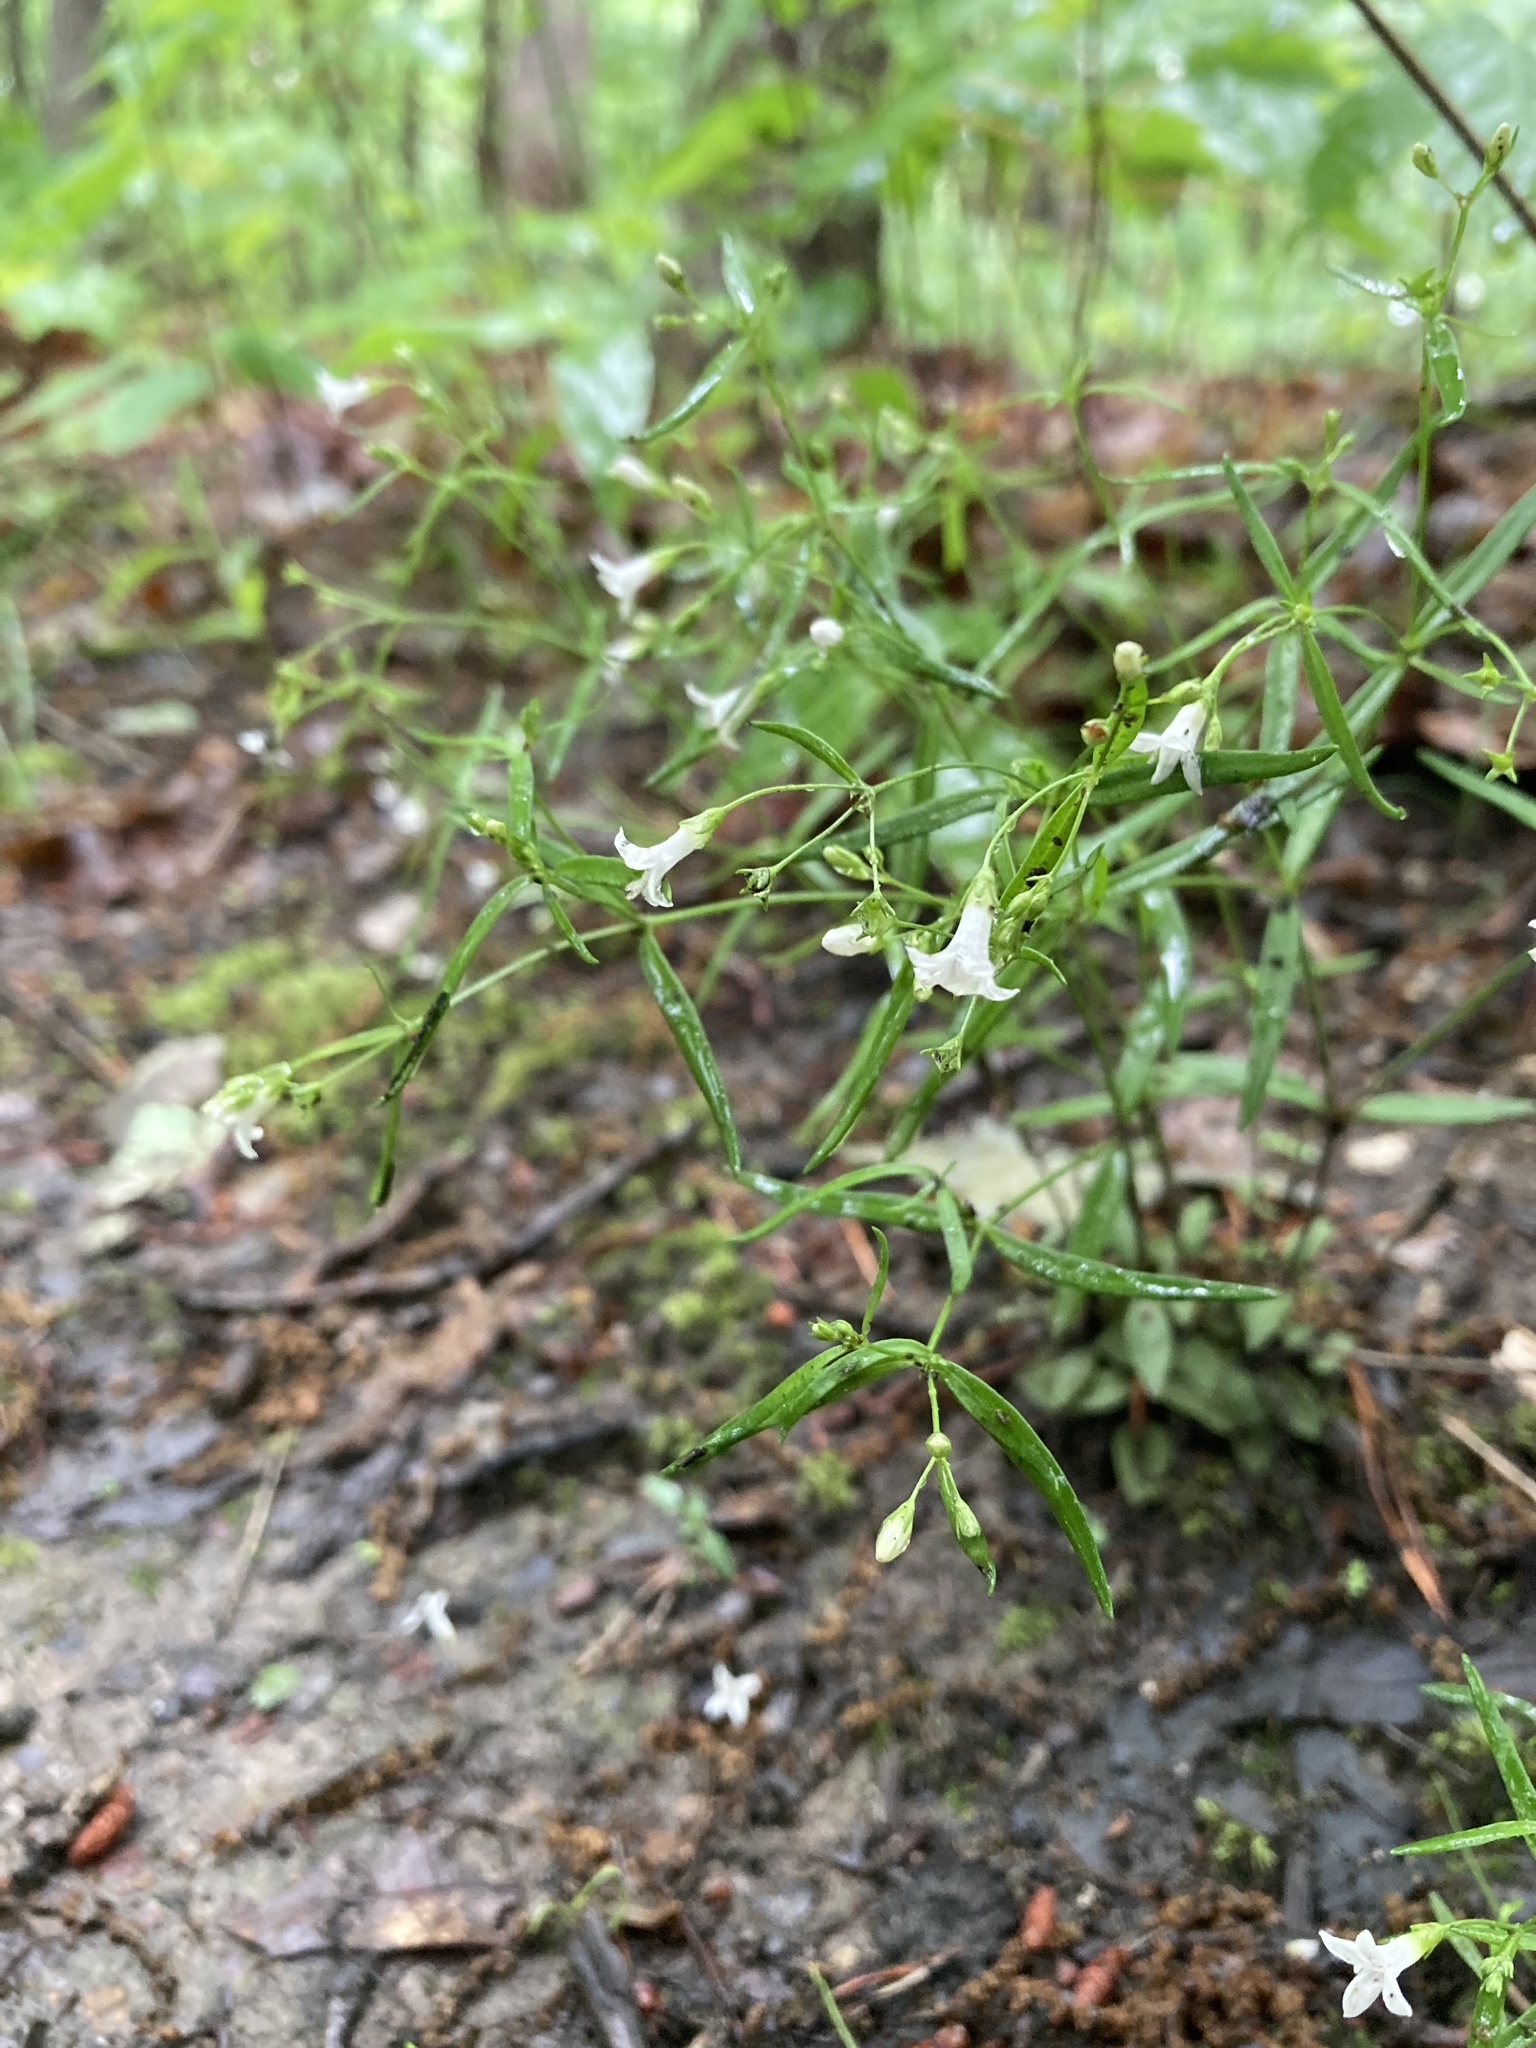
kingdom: Plantae
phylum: Tracheophyta
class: Magnoliopsida
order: Gentianales
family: Rubiaceae
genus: Houstonia
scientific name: Houstonia longifolia
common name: Long-leaved bluets
